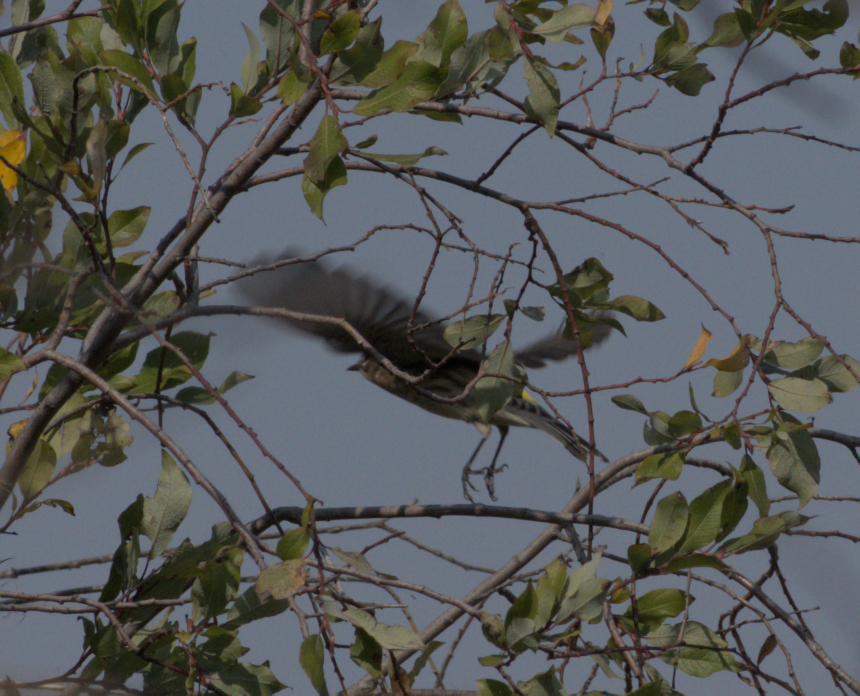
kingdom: Animalia
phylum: Chordata
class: Aves
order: Passeriformes
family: Parulidae
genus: Setophaga
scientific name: Setophaga coronata
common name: Myrtle warbler
